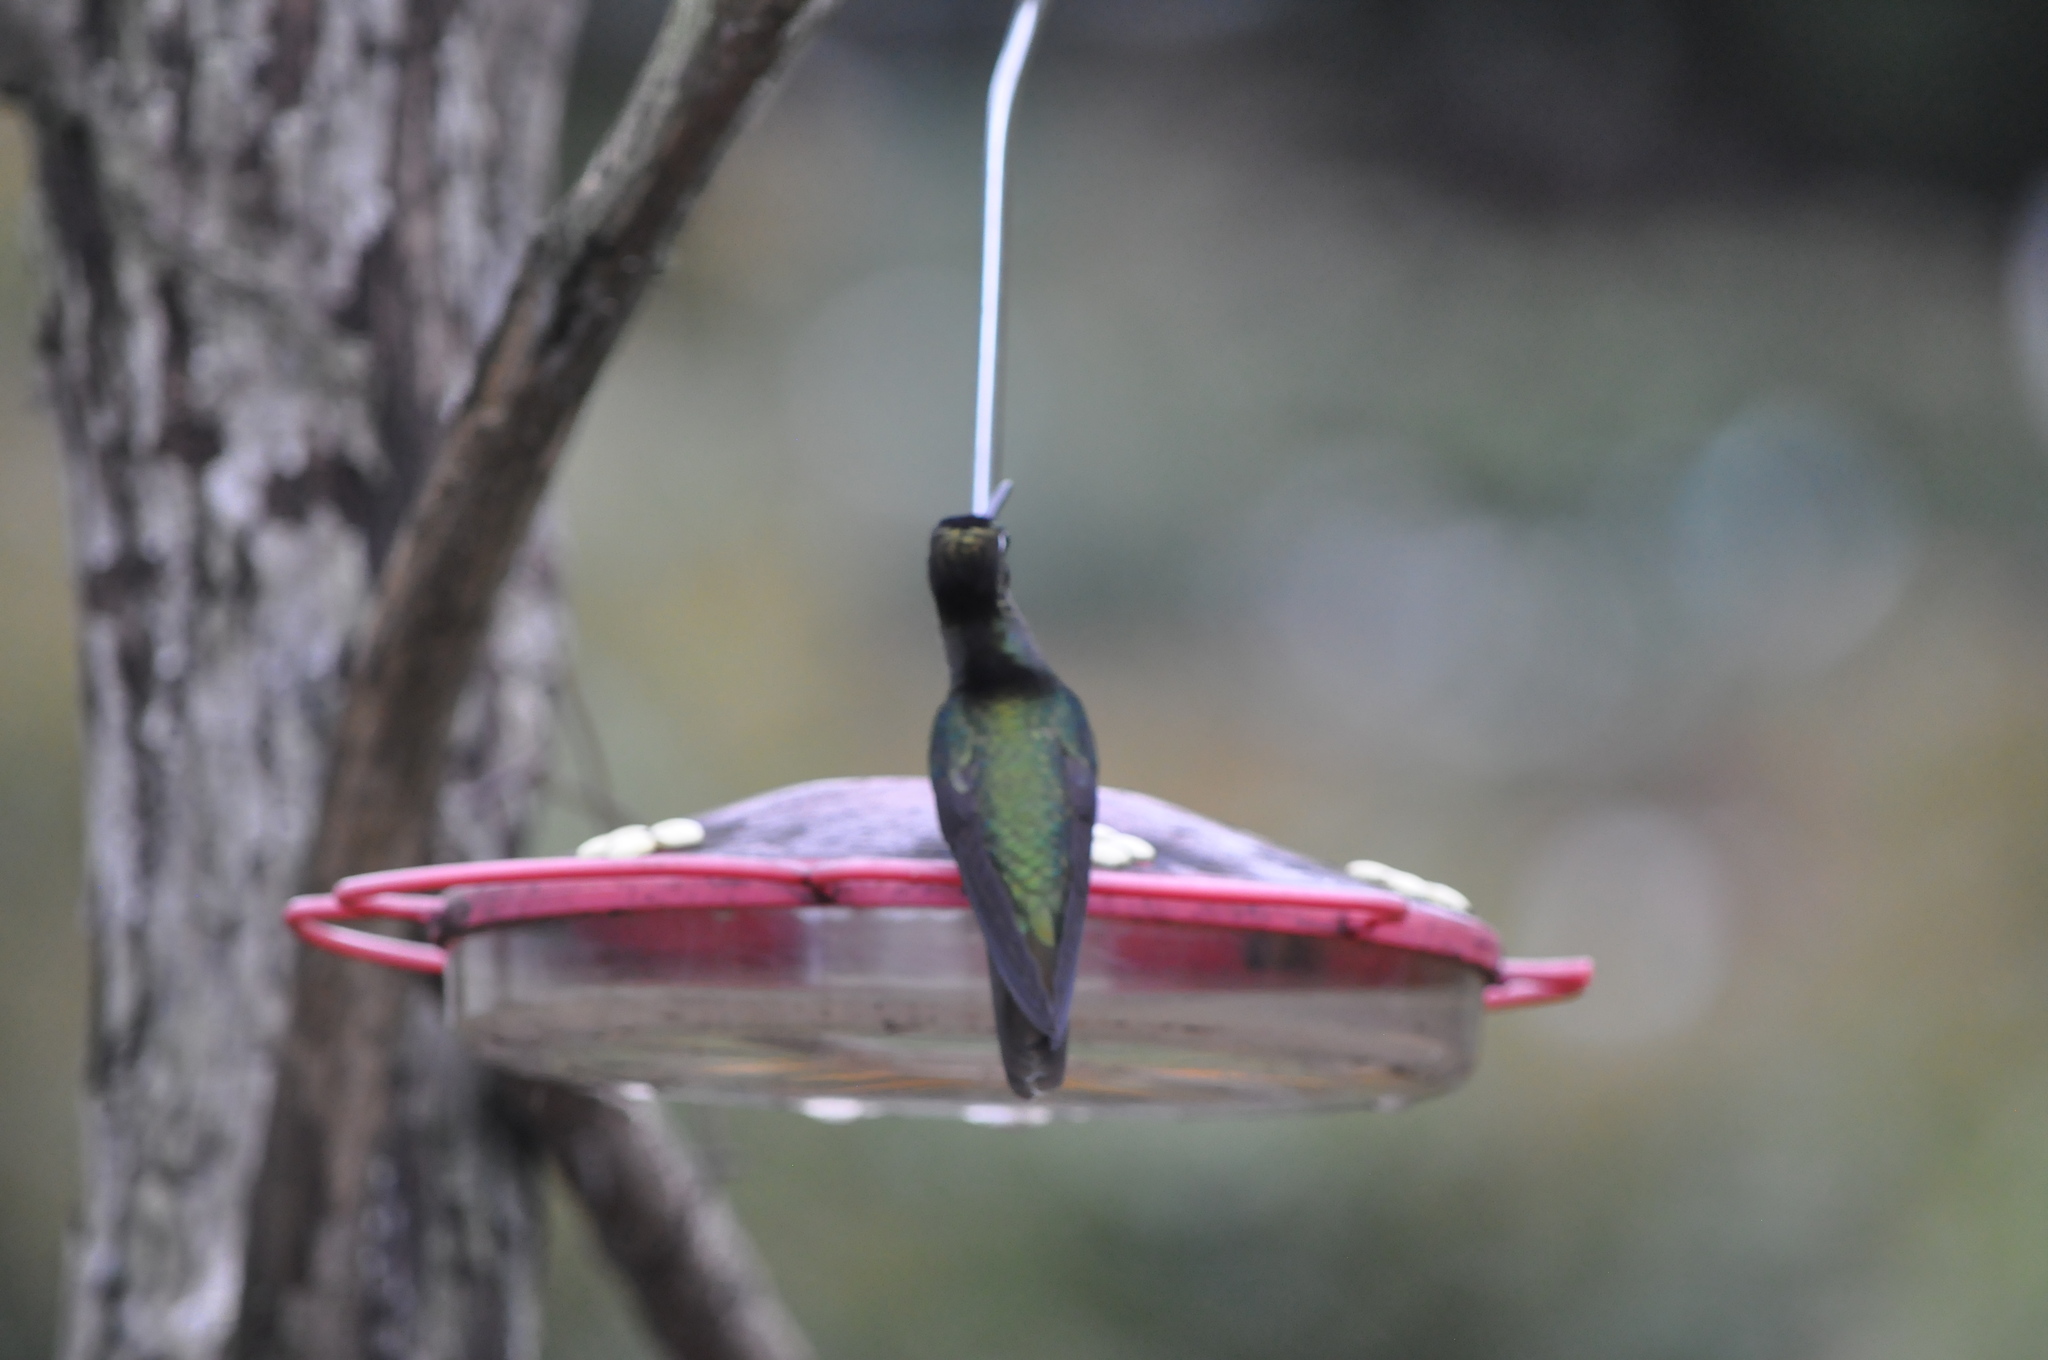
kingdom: Animalia
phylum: Chordata
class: Aves
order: Apodiformes
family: Trochilidae
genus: Eugenes
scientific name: Eugenes spectabilis
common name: Talamanca hummingbird
